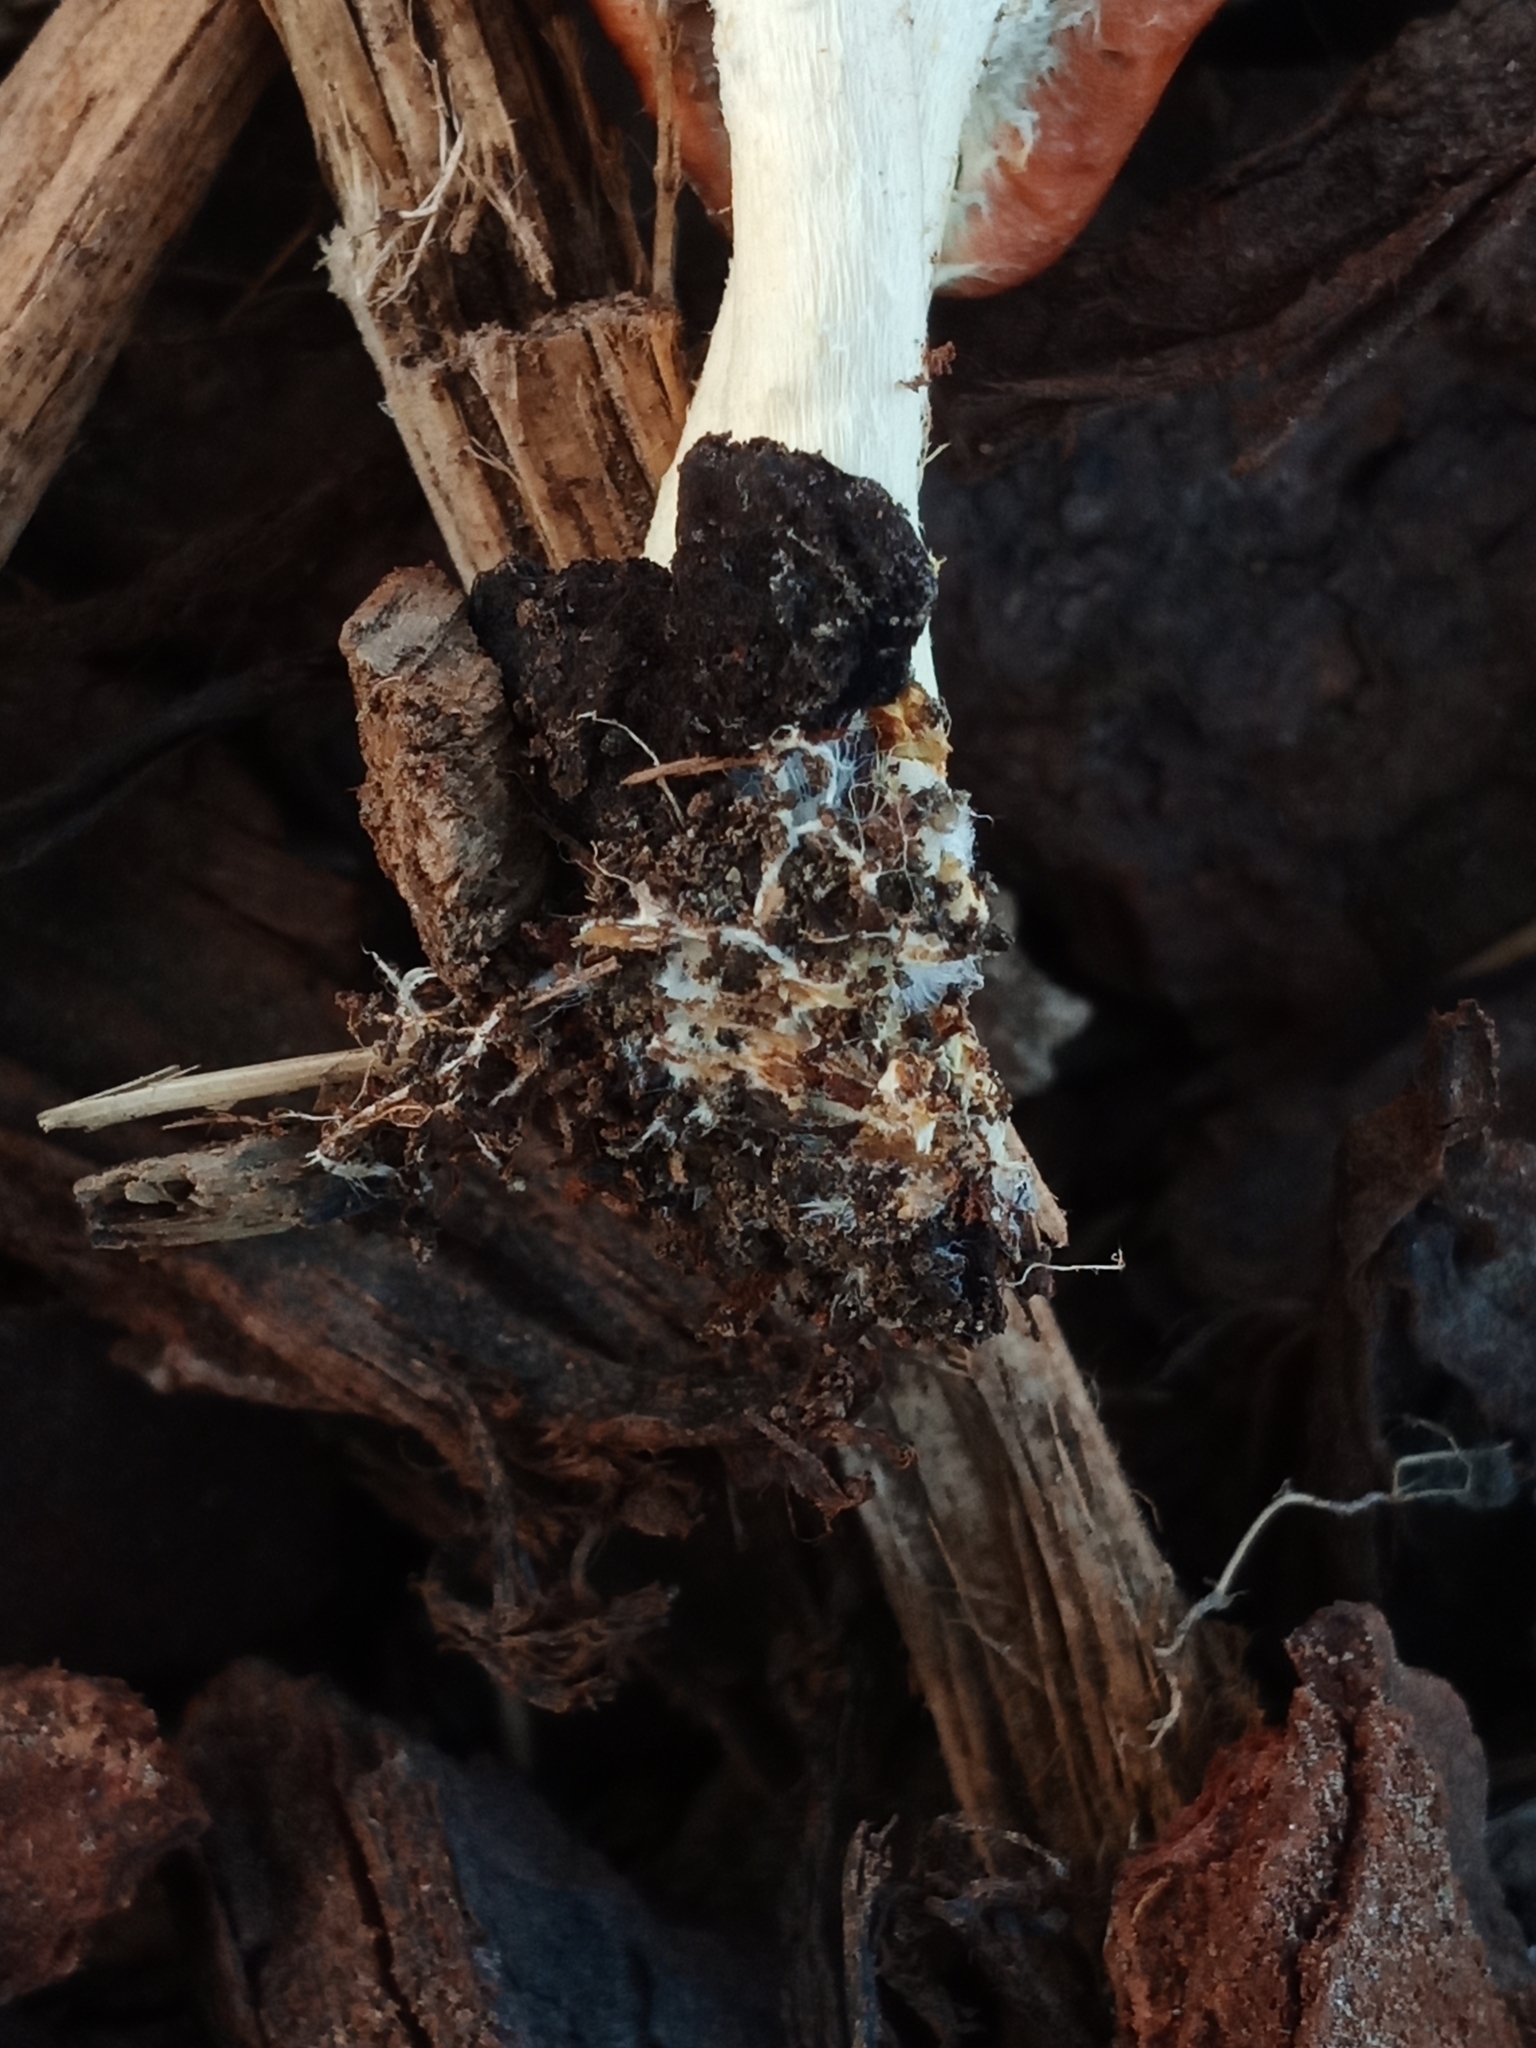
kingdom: Fungi
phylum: Basidiomycota
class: Agaricomycetes
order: Agaricales
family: Strophariaceae
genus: Leratiomyces
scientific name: Leratiomyces ceres
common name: Redlead roundhead
